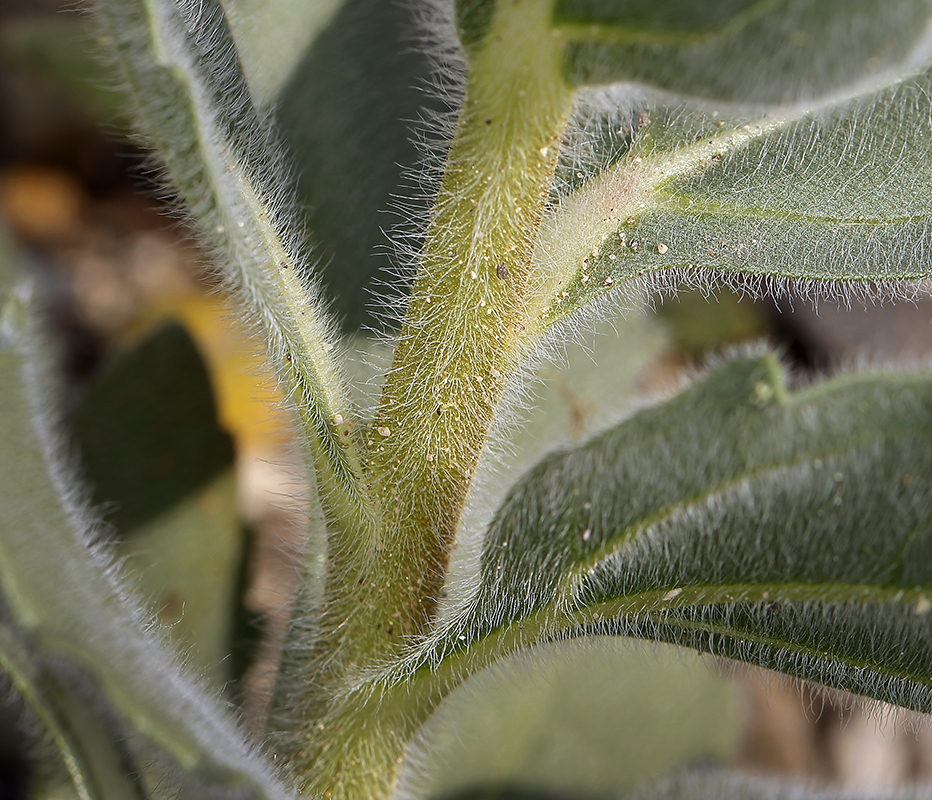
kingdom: Plantae
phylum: Tracheophyta
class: Magnoliopsida
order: Asterales
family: Asteraceae
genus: Geraea
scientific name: Geraea canescens
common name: Desert-gold
